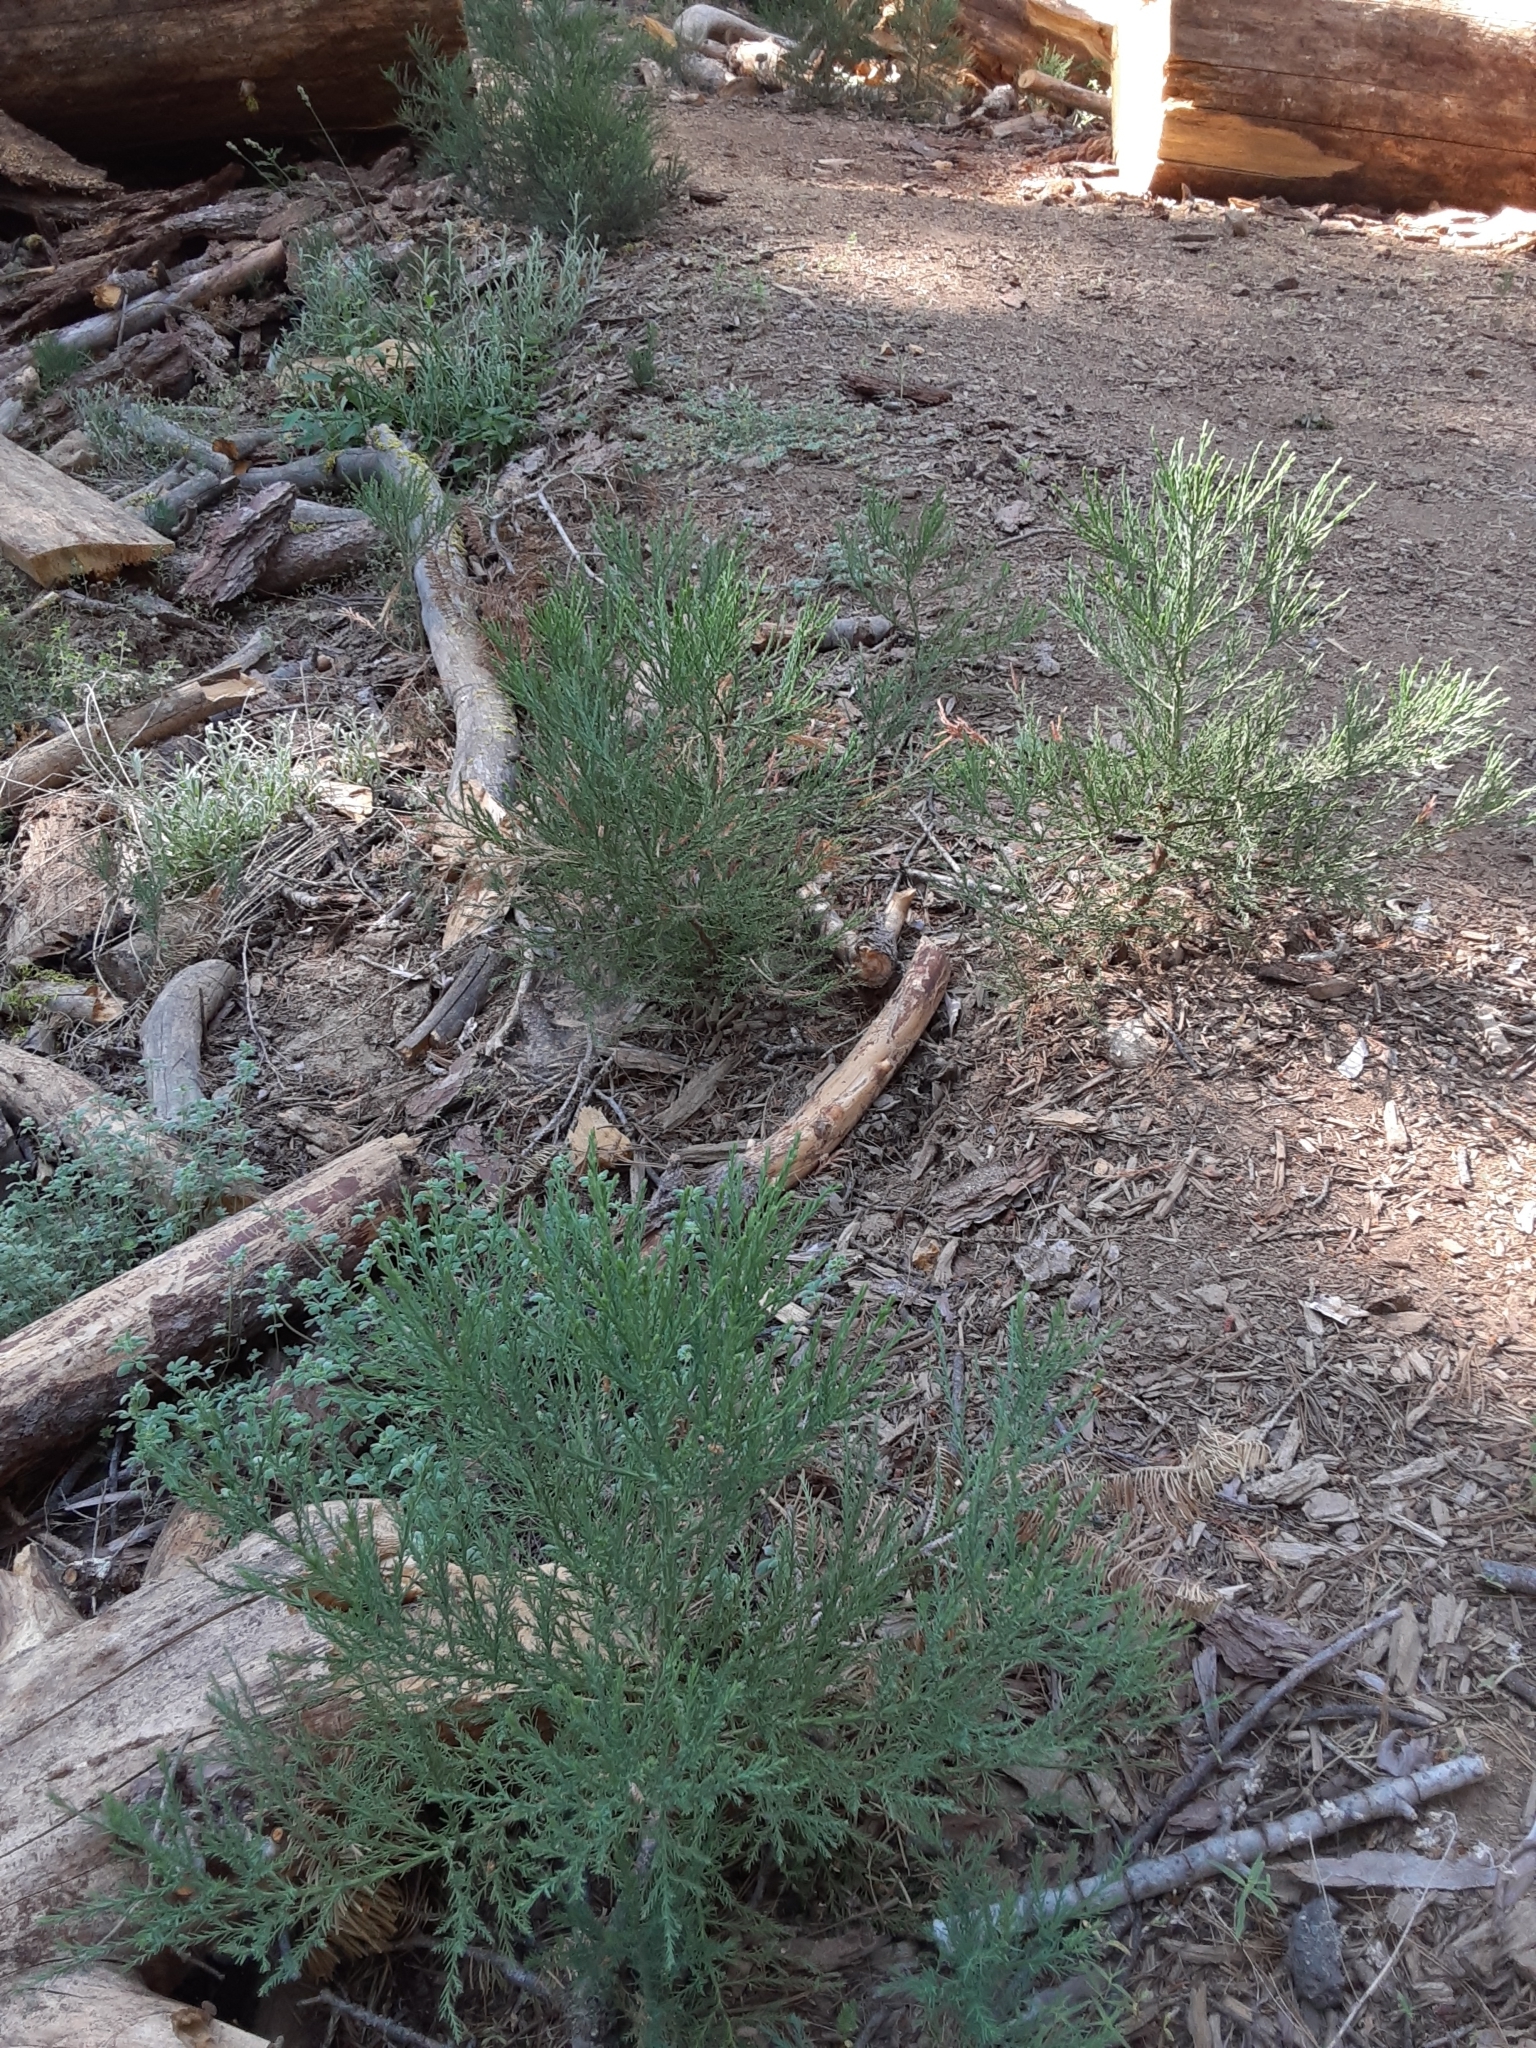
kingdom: Plantae
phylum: Tracheophyta
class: Pinopsida
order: Pinales
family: Cupressaceae
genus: Sequoiadendron
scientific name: Sequoiadendron giganteum
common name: Wellingtonia
